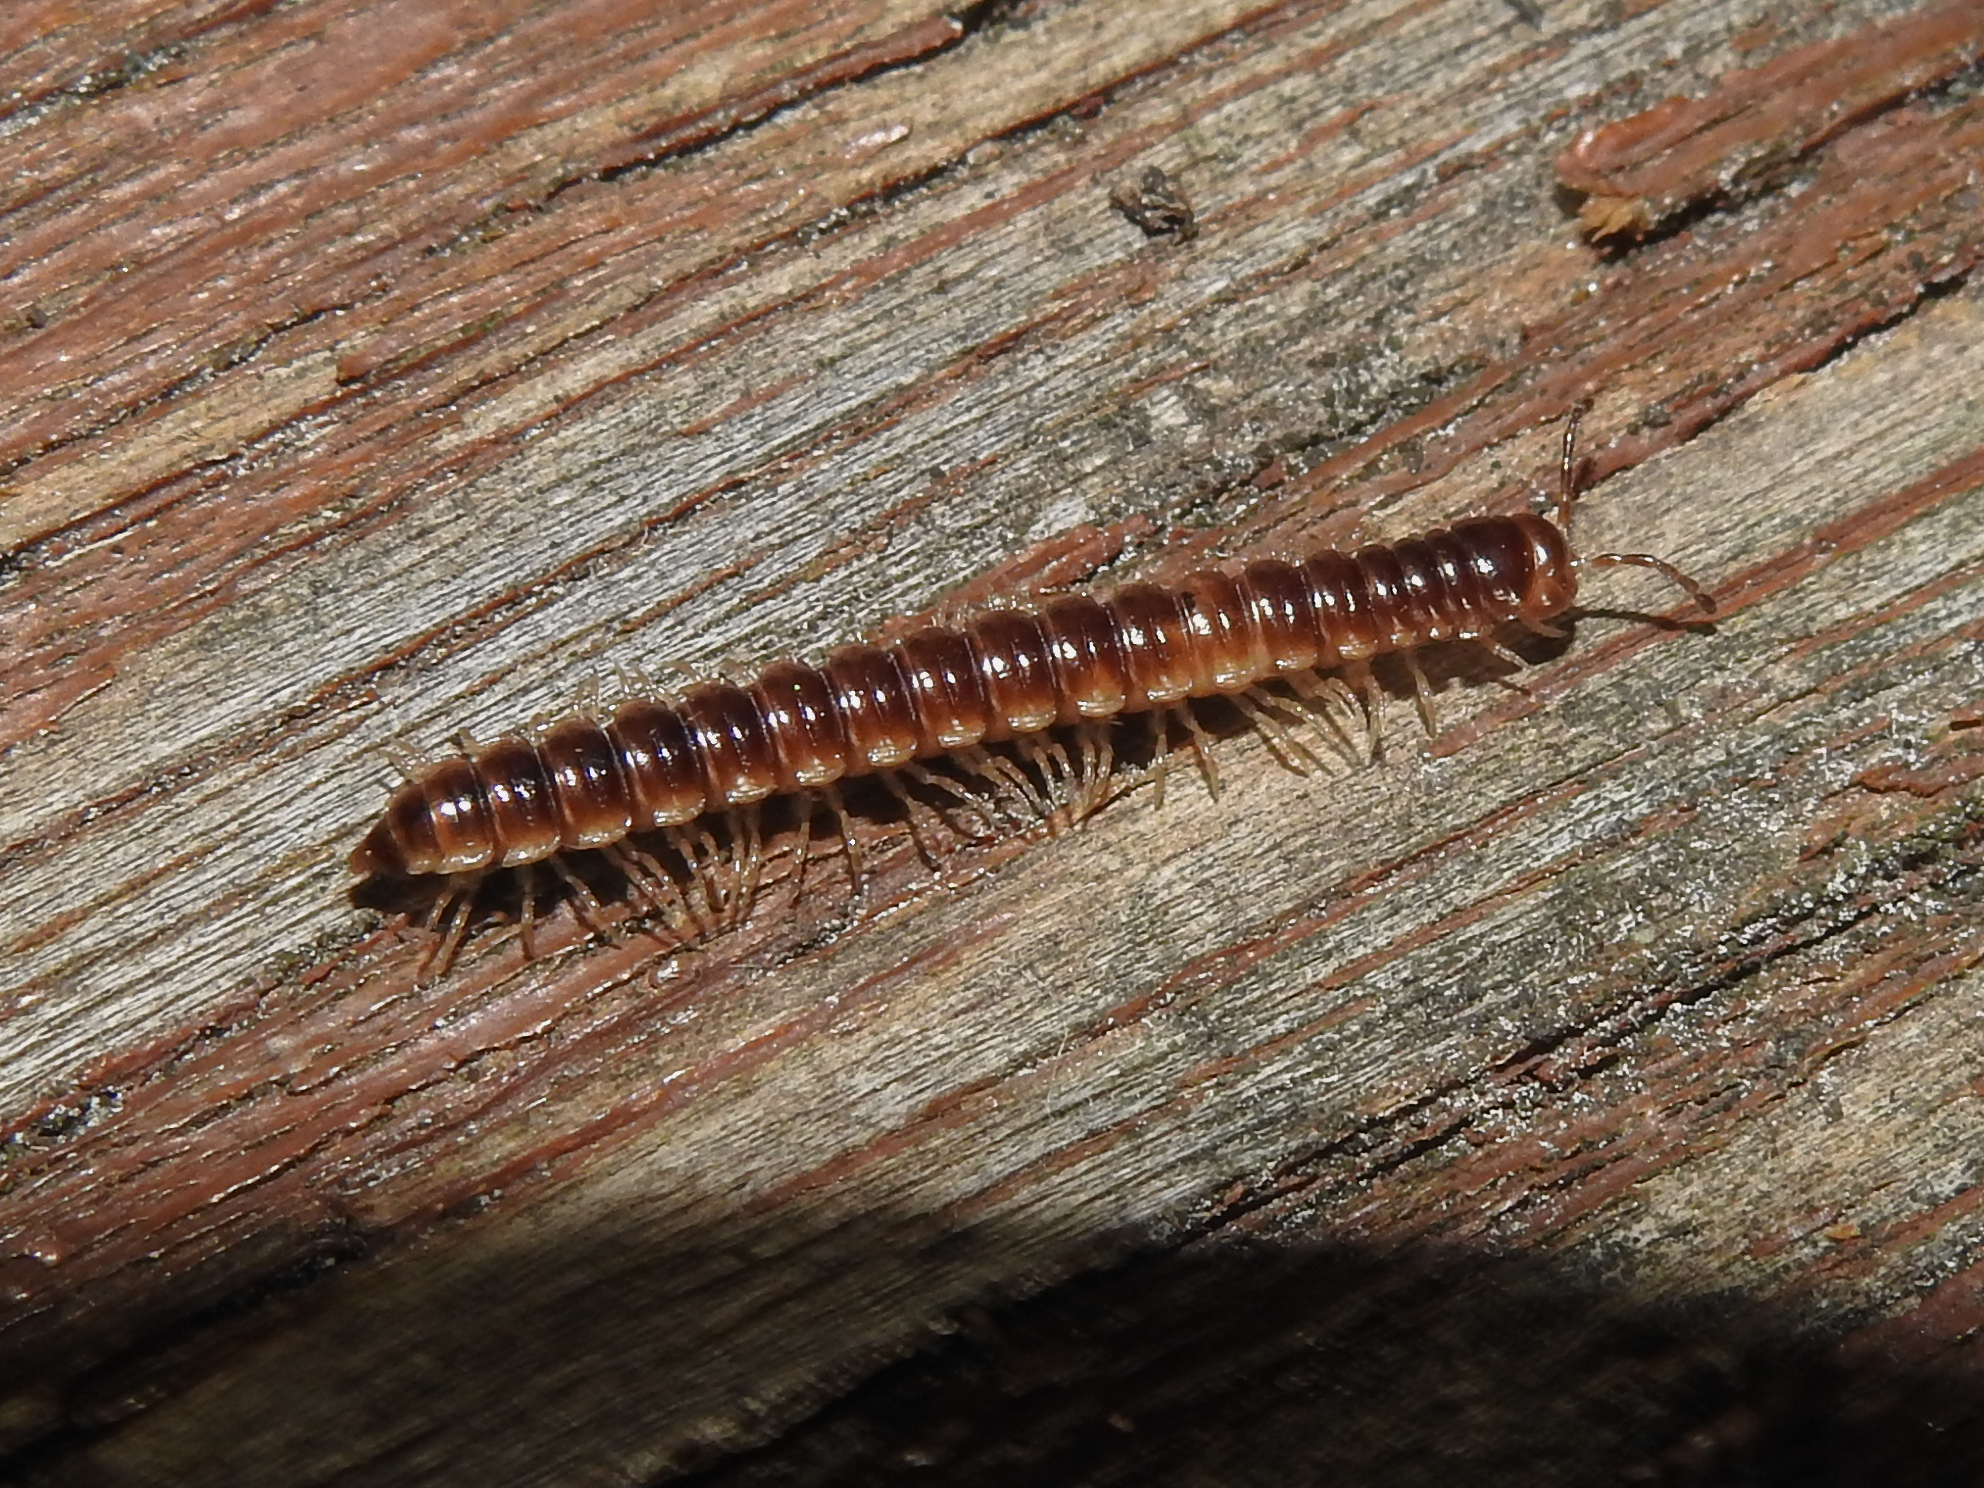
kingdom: Animalia
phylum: Arthropoda
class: Diplopoda
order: Polydesmida
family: Paradoxosomatidae
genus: Oxidus
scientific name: Oxidus gracilis
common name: Greenhouse millipede
